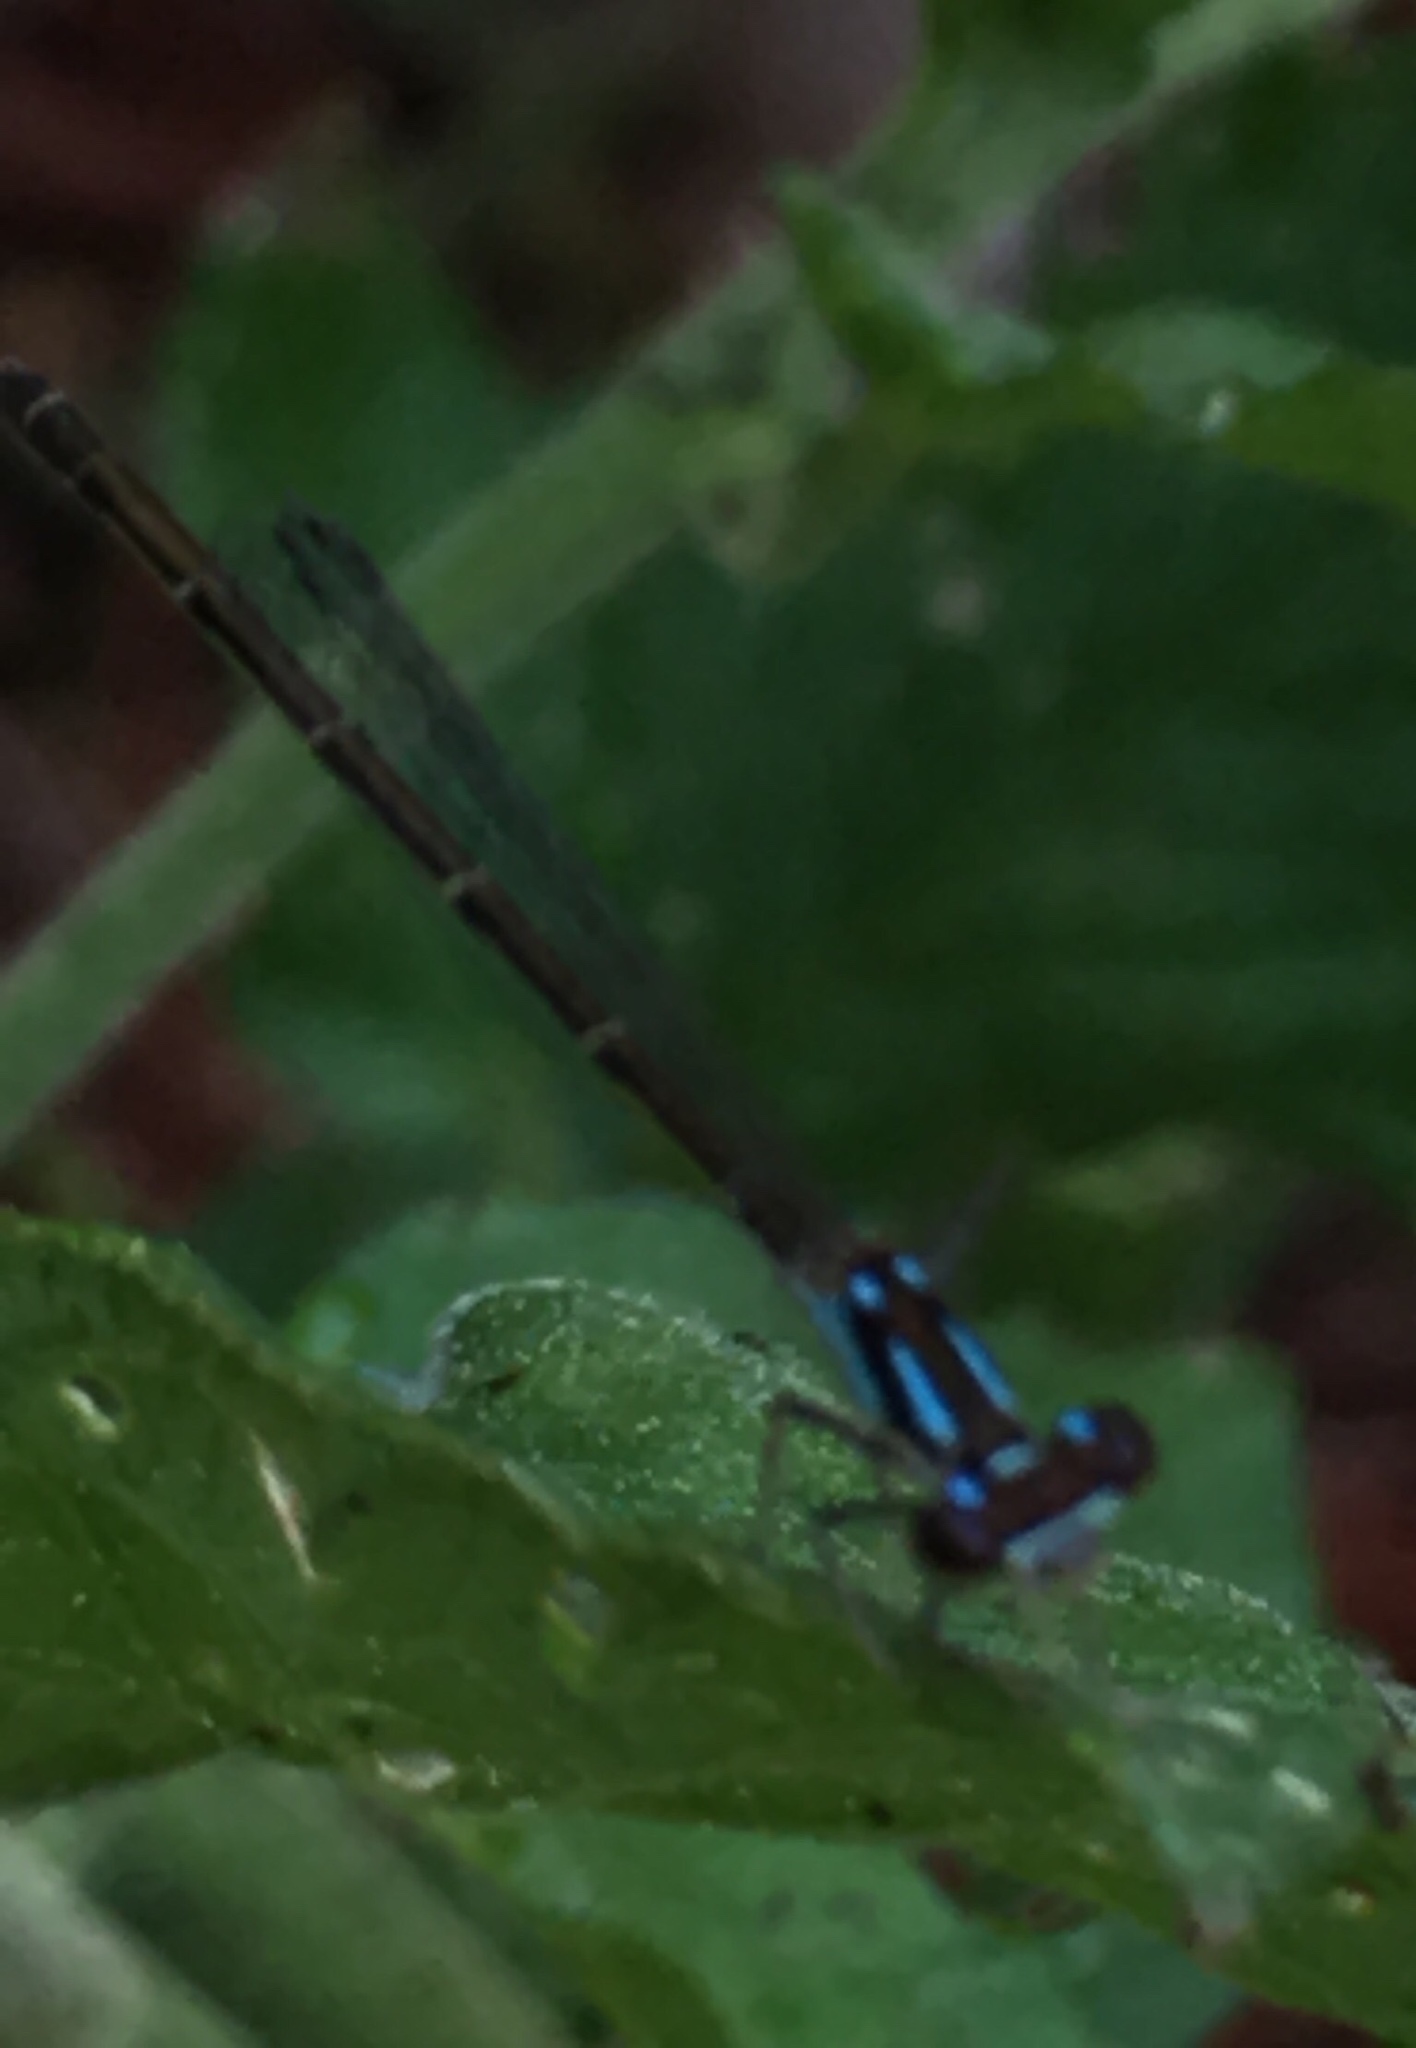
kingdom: Animalia
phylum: Arthropoda
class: Insecta
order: Odonata
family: Coenagrionidae
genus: Ischnura
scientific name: Ischnura posita
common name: Fragile forktail
